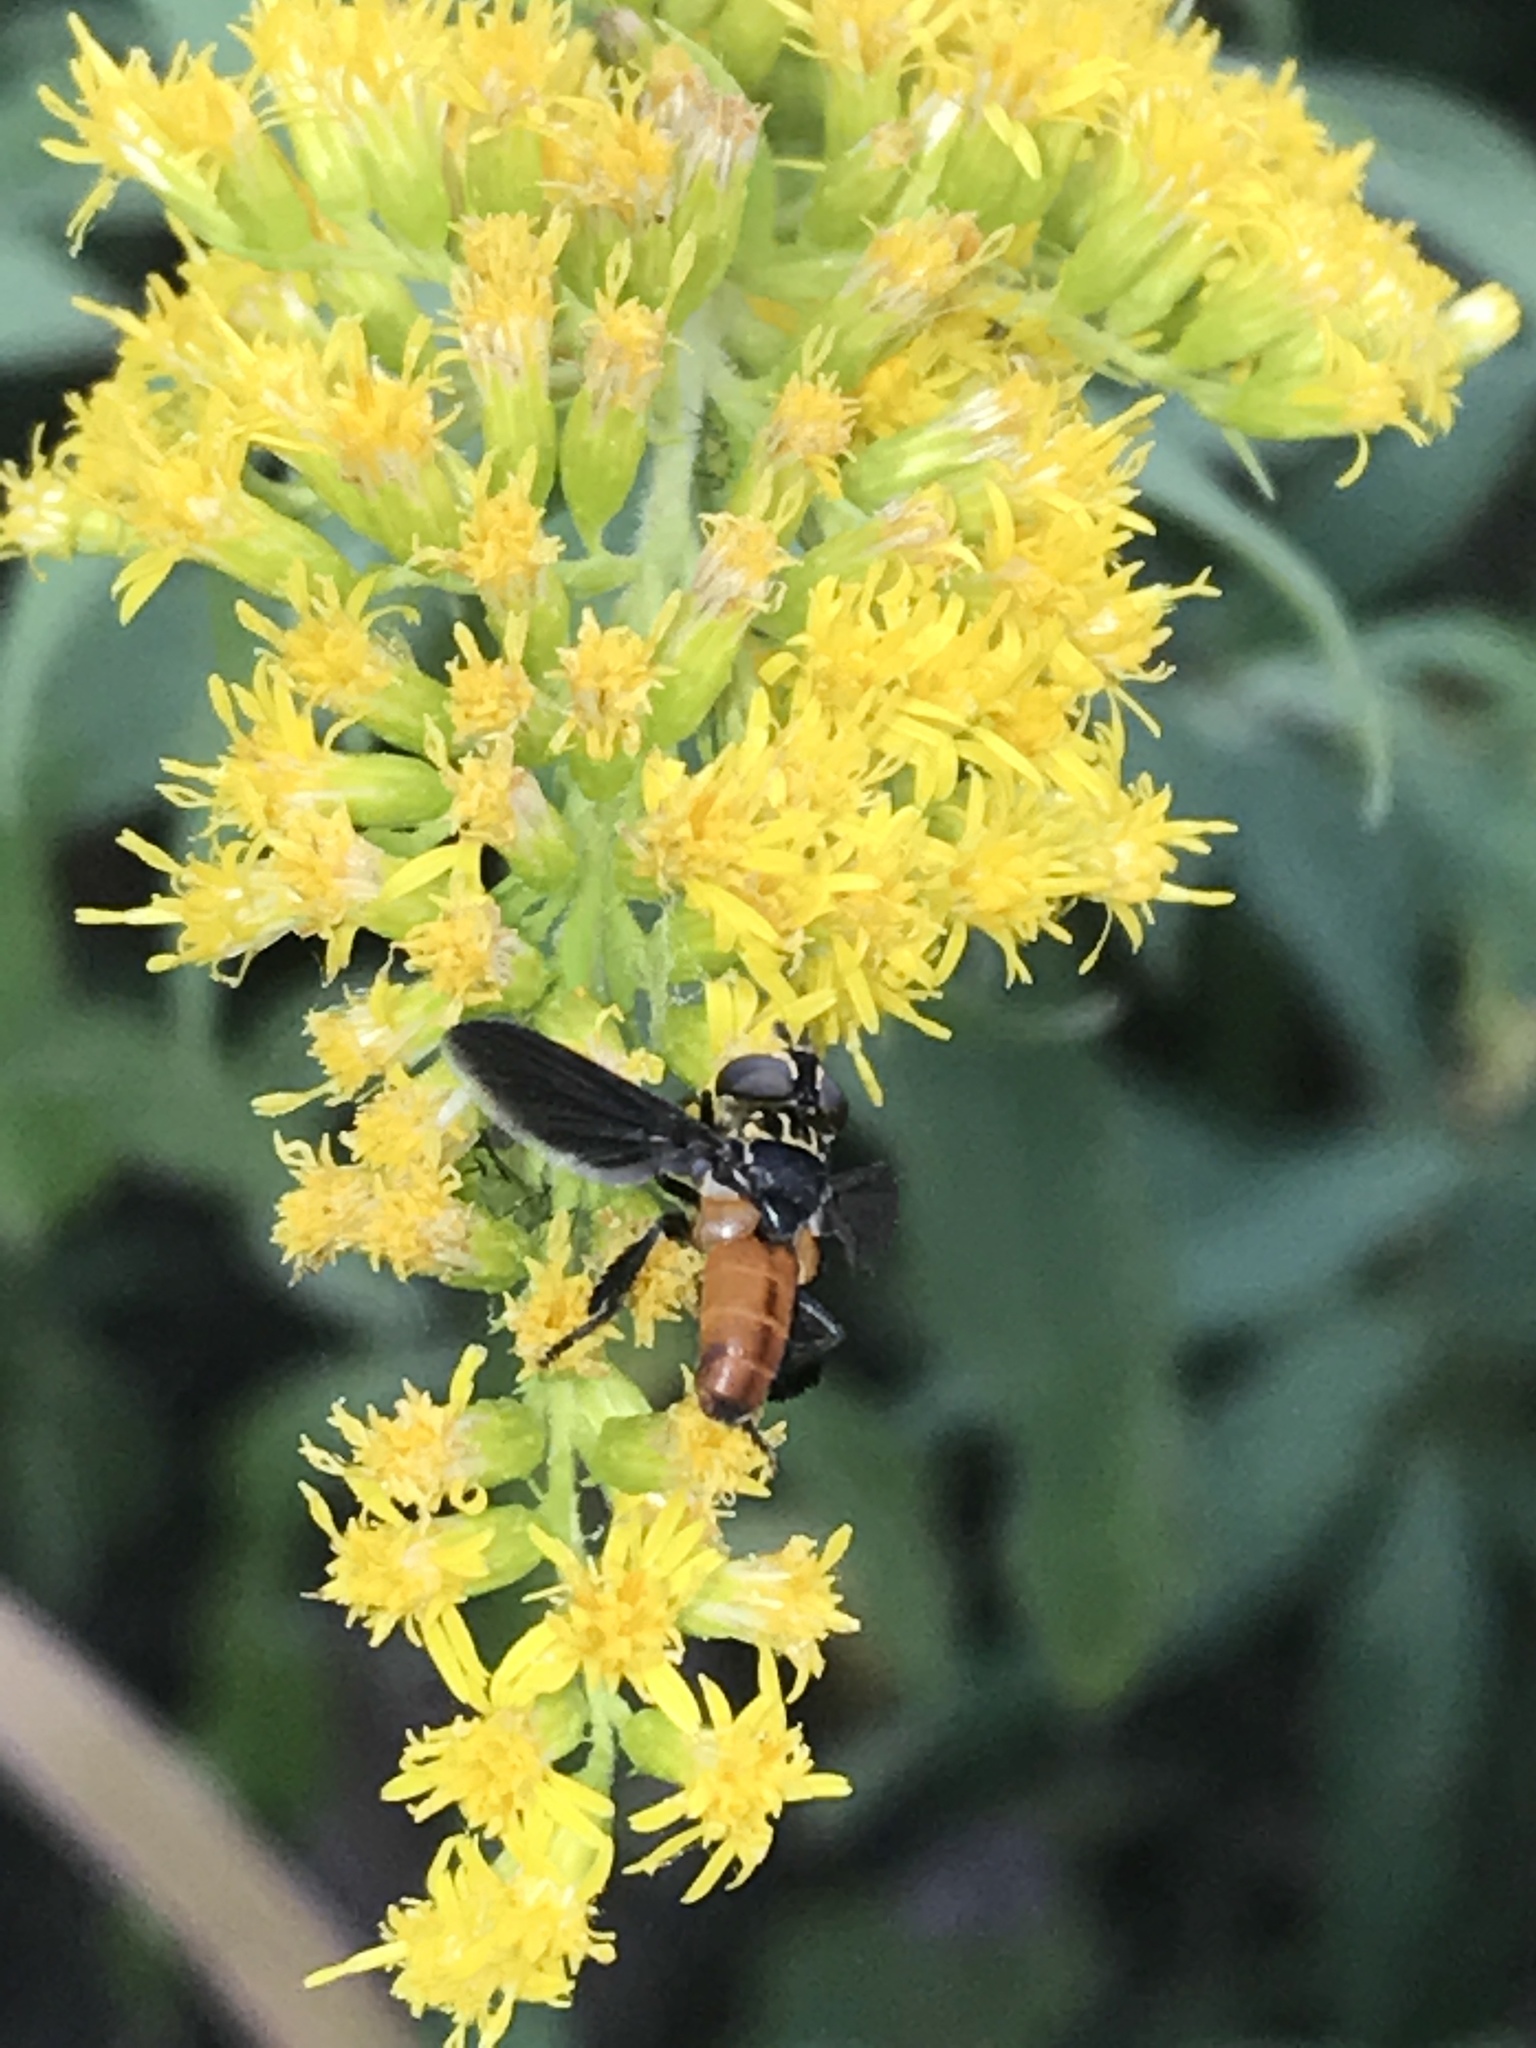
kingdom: Animalia
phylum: Arthropoda
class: Insecta
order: Diptera
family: Tachinidae
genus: Trichopoda
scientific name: Trichopoda pennipes
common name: Tachinid fly
